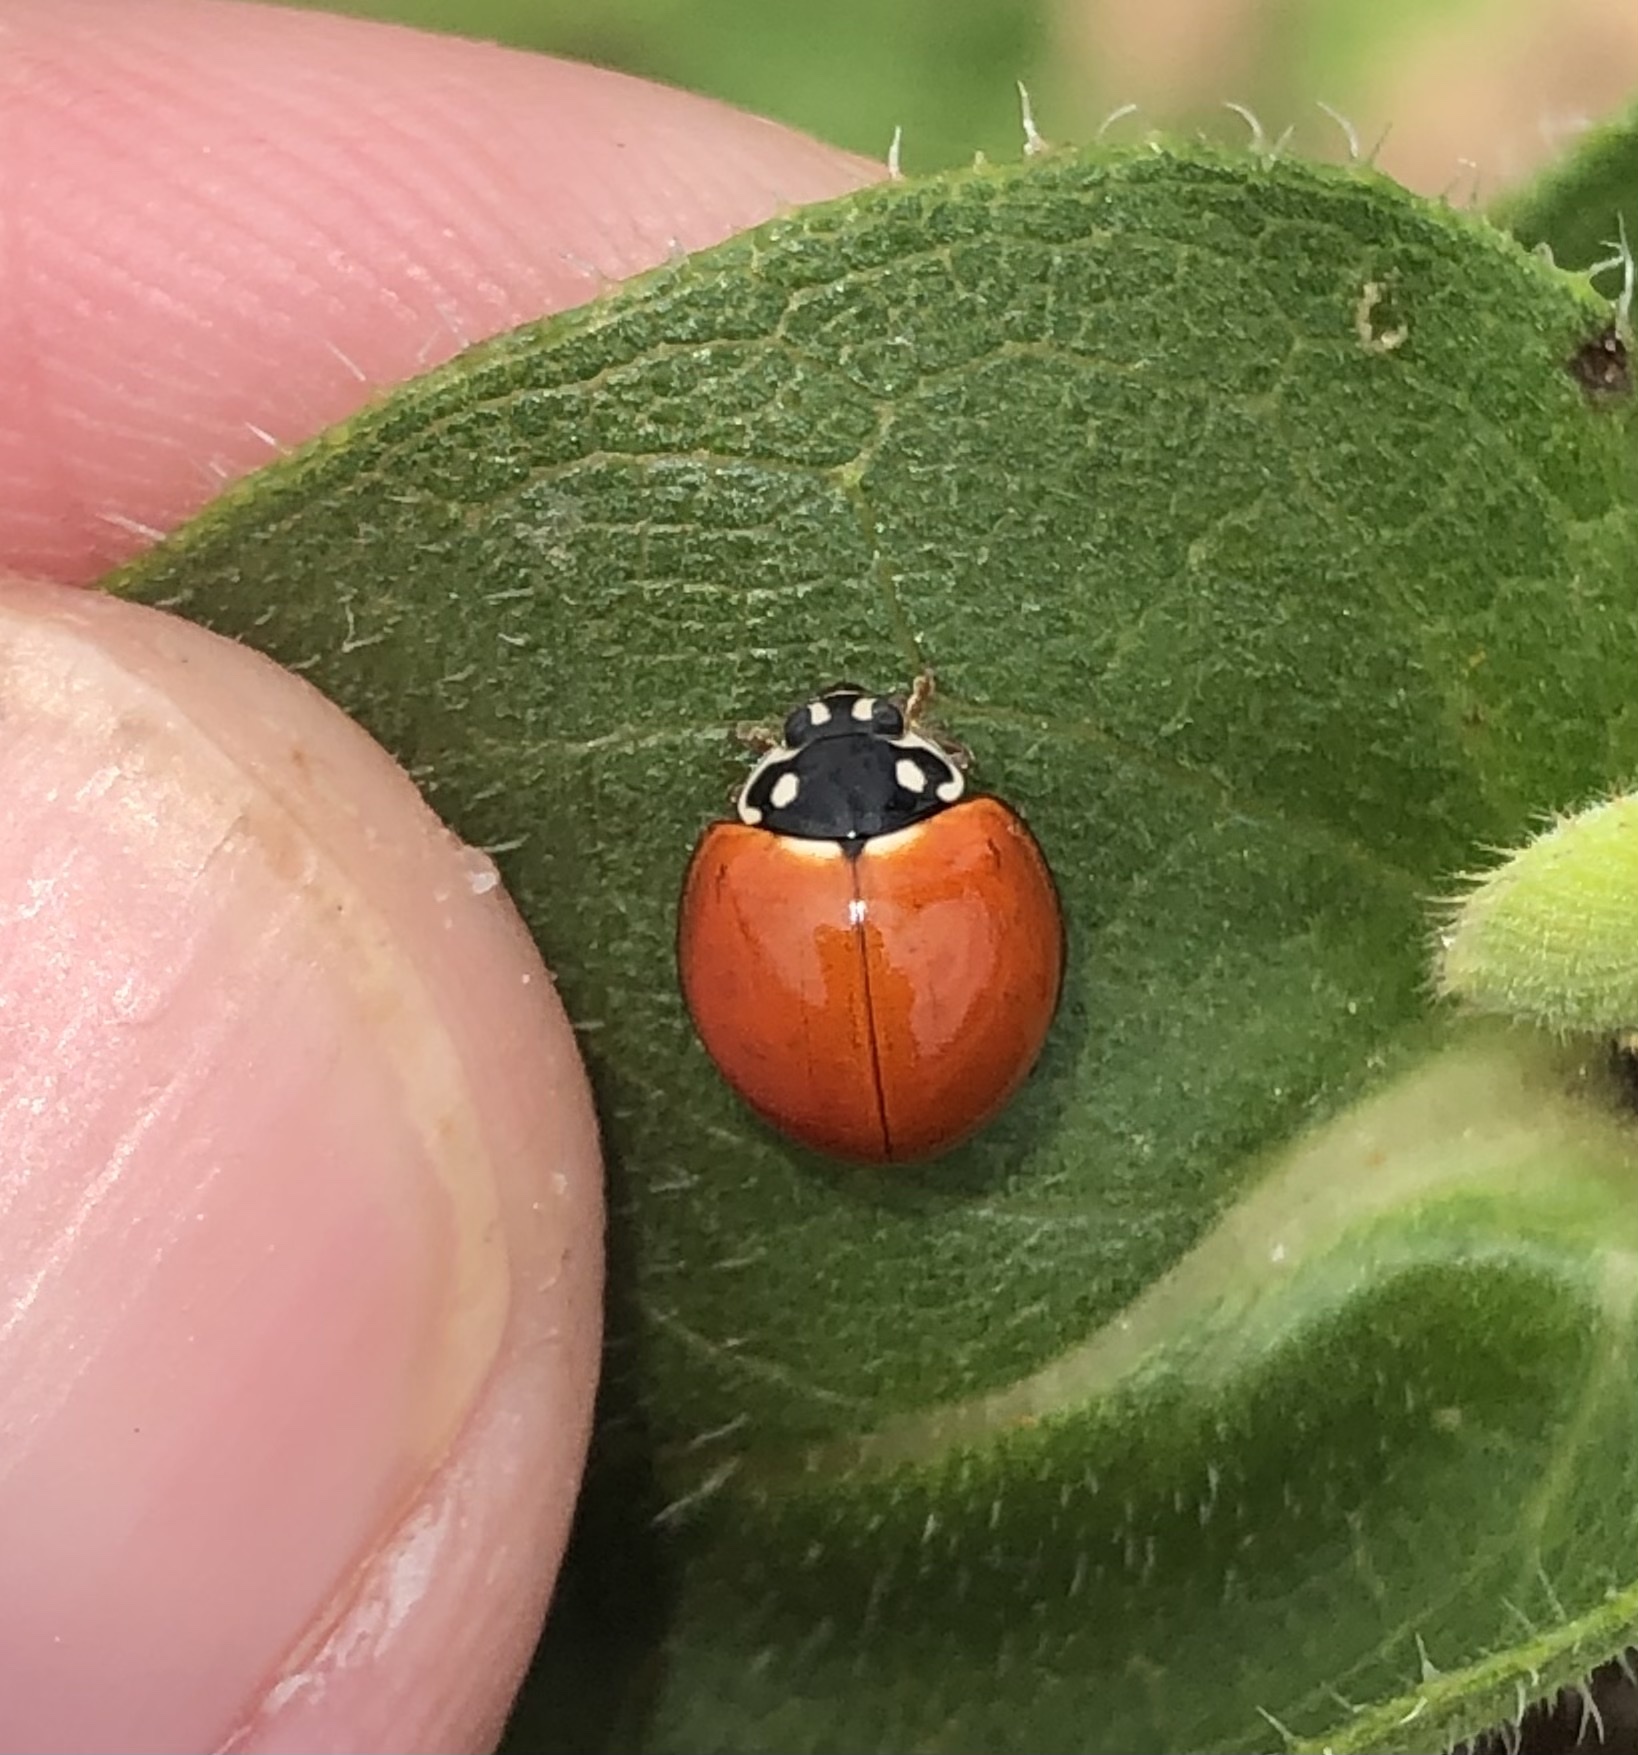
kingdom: Animalia
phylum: Arthropoda
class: Insecta
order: Coleoptera
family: Coccinellidae
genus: Cycloneda
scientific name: Cycloneda munda
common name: Polished lady beetle
